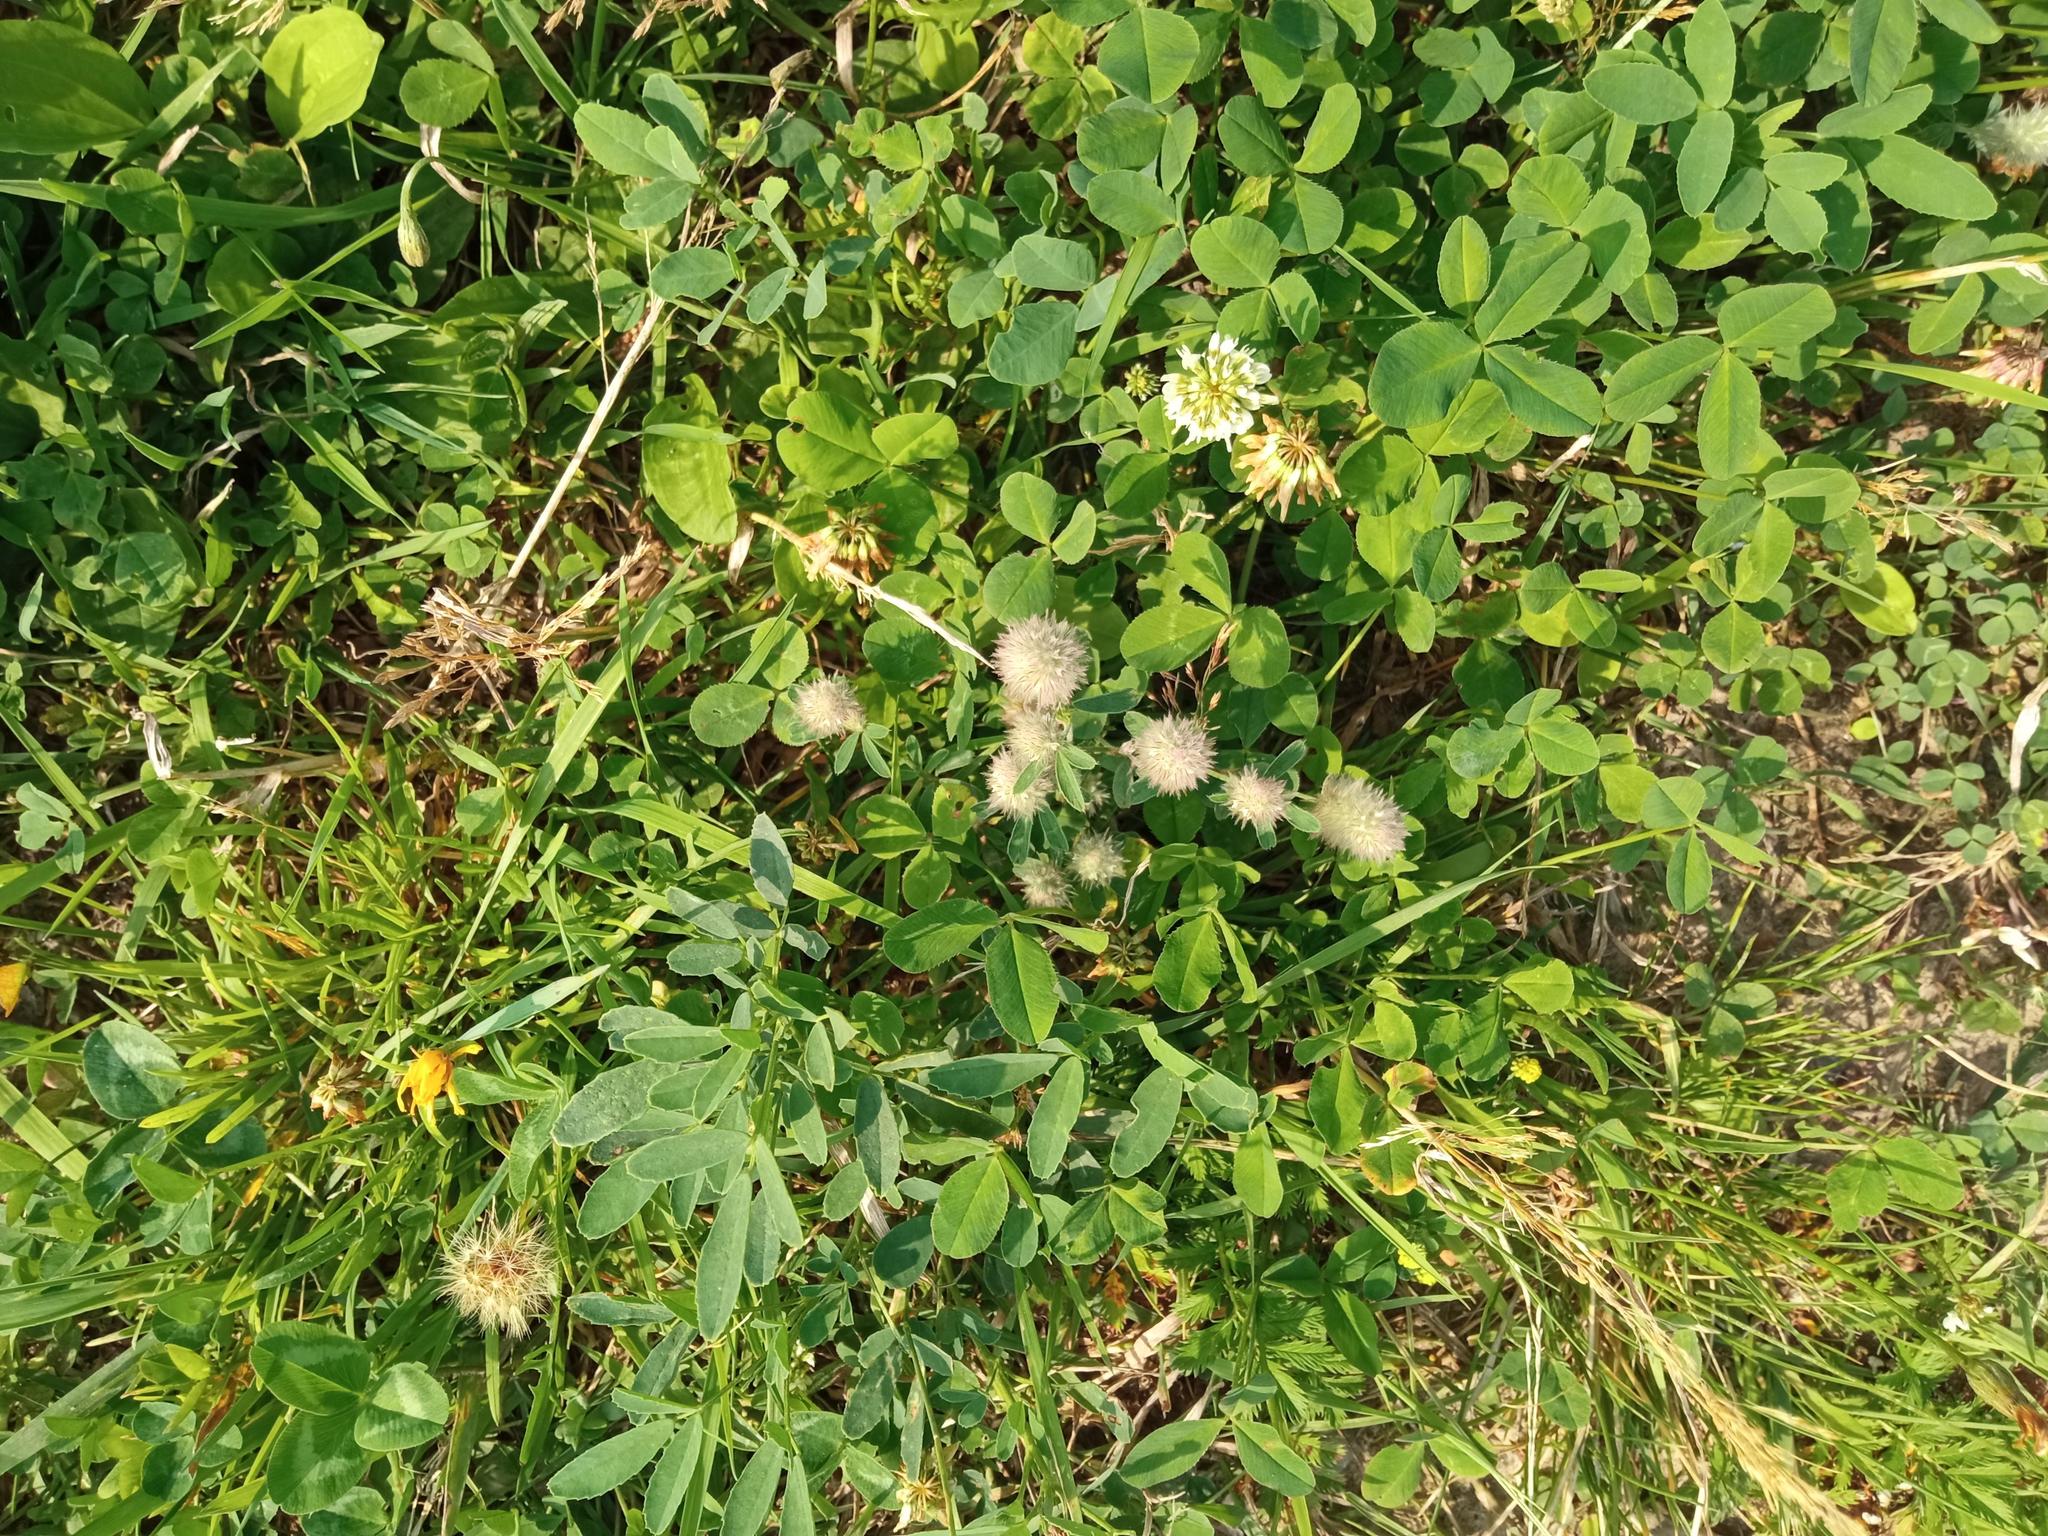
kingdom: Plantae
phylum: Tracheophyta
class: Magnoliopsida
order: Fabales
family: Fabaceae
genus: Trifolium
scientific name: Trifolium arvense
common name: Hare's-foot clover
